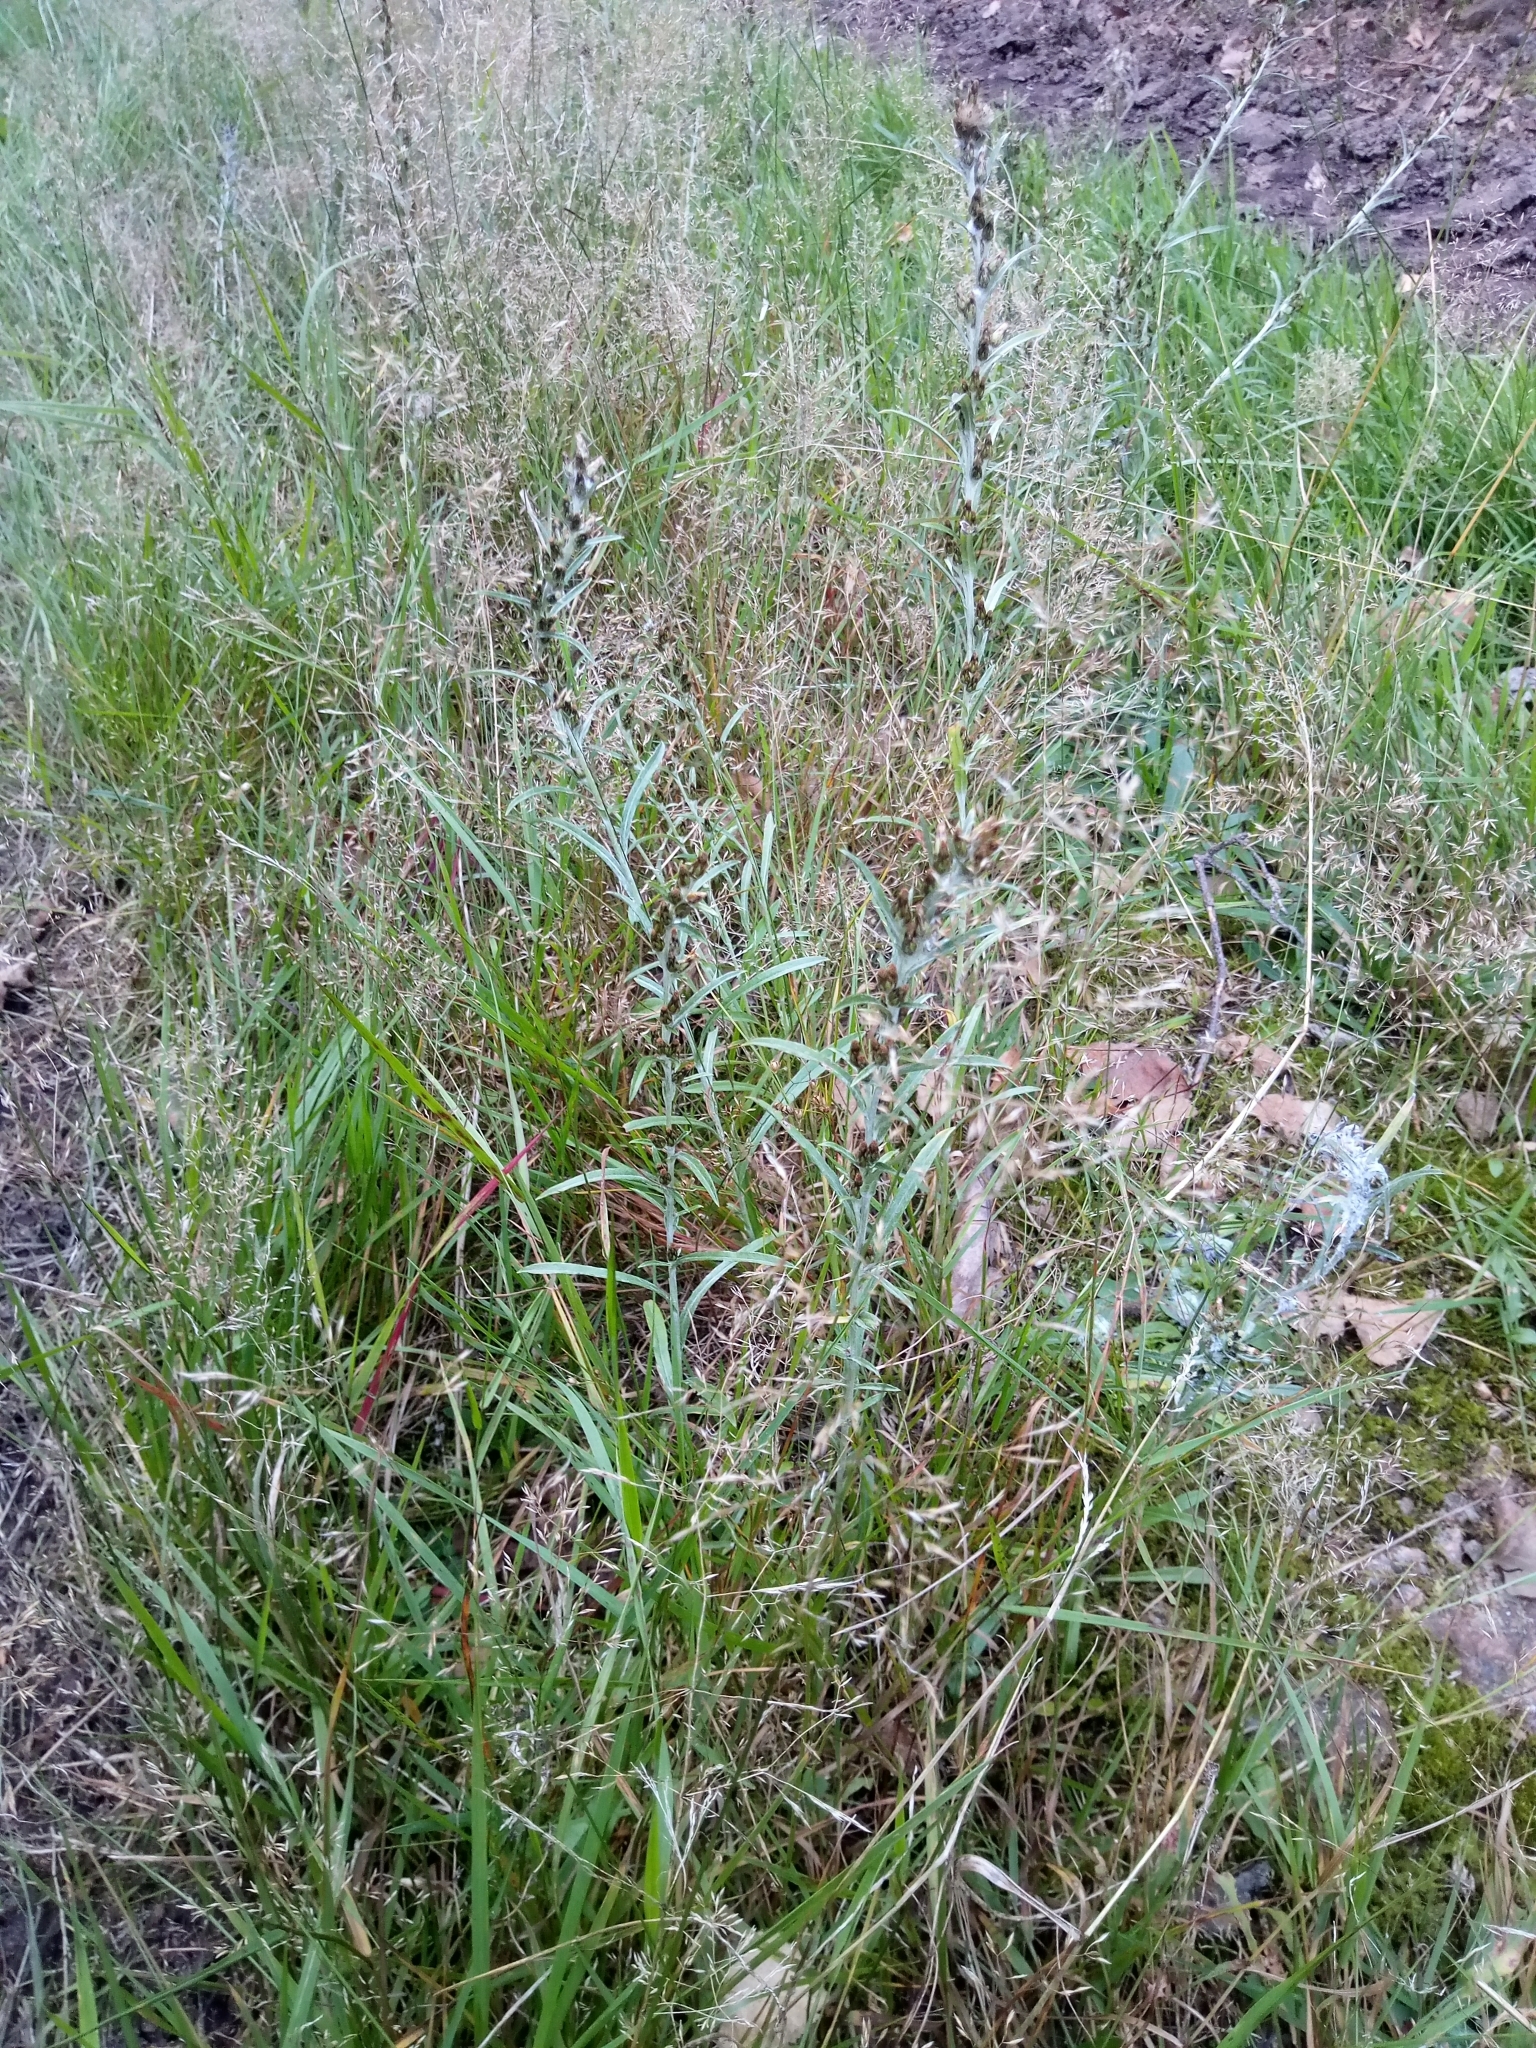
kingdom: Plantae
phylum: Tracheophyta
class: Magnoliopsida
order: Asterales
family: Asteraceae
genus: Omalotheca
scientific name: Omalotheca sylvatica
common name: Heath cudweed
